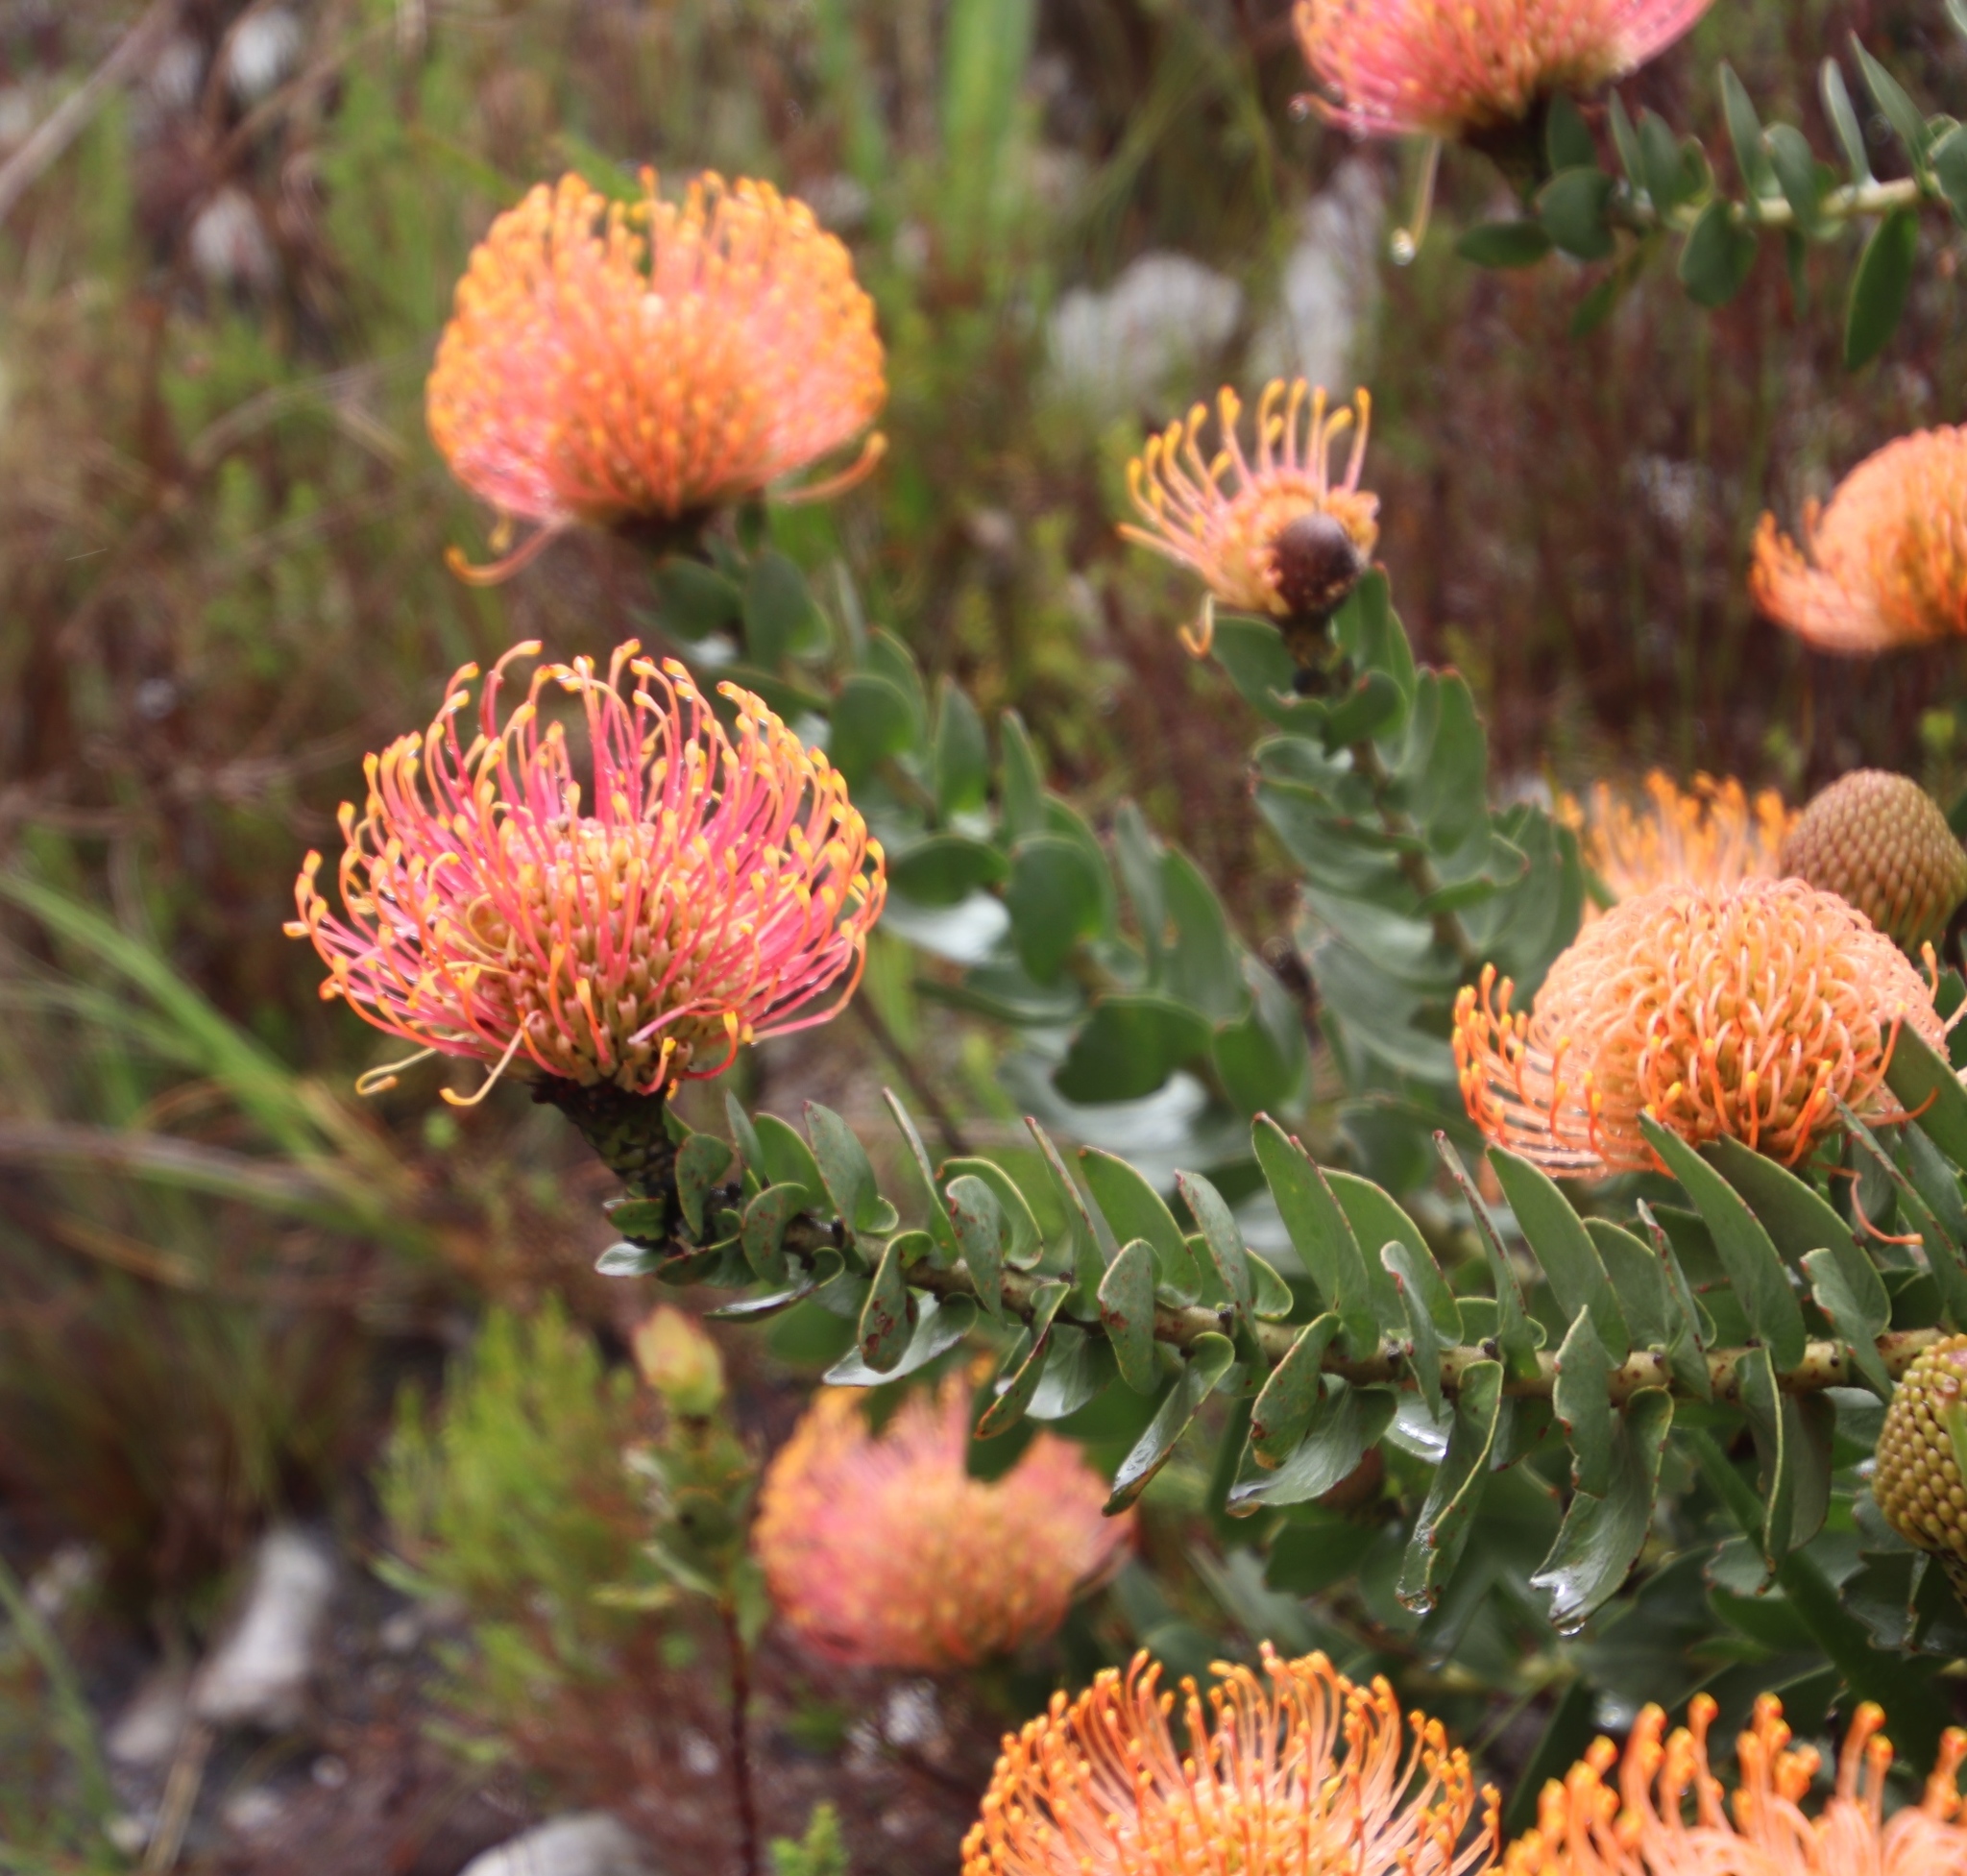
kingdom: Plantae
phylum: Tracheophyta
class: Magnoliopsida
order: Proteales
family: Proteaceae
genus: Leucospermum
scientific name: Leucospermum cordifolium
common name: Red pincushion-protea
